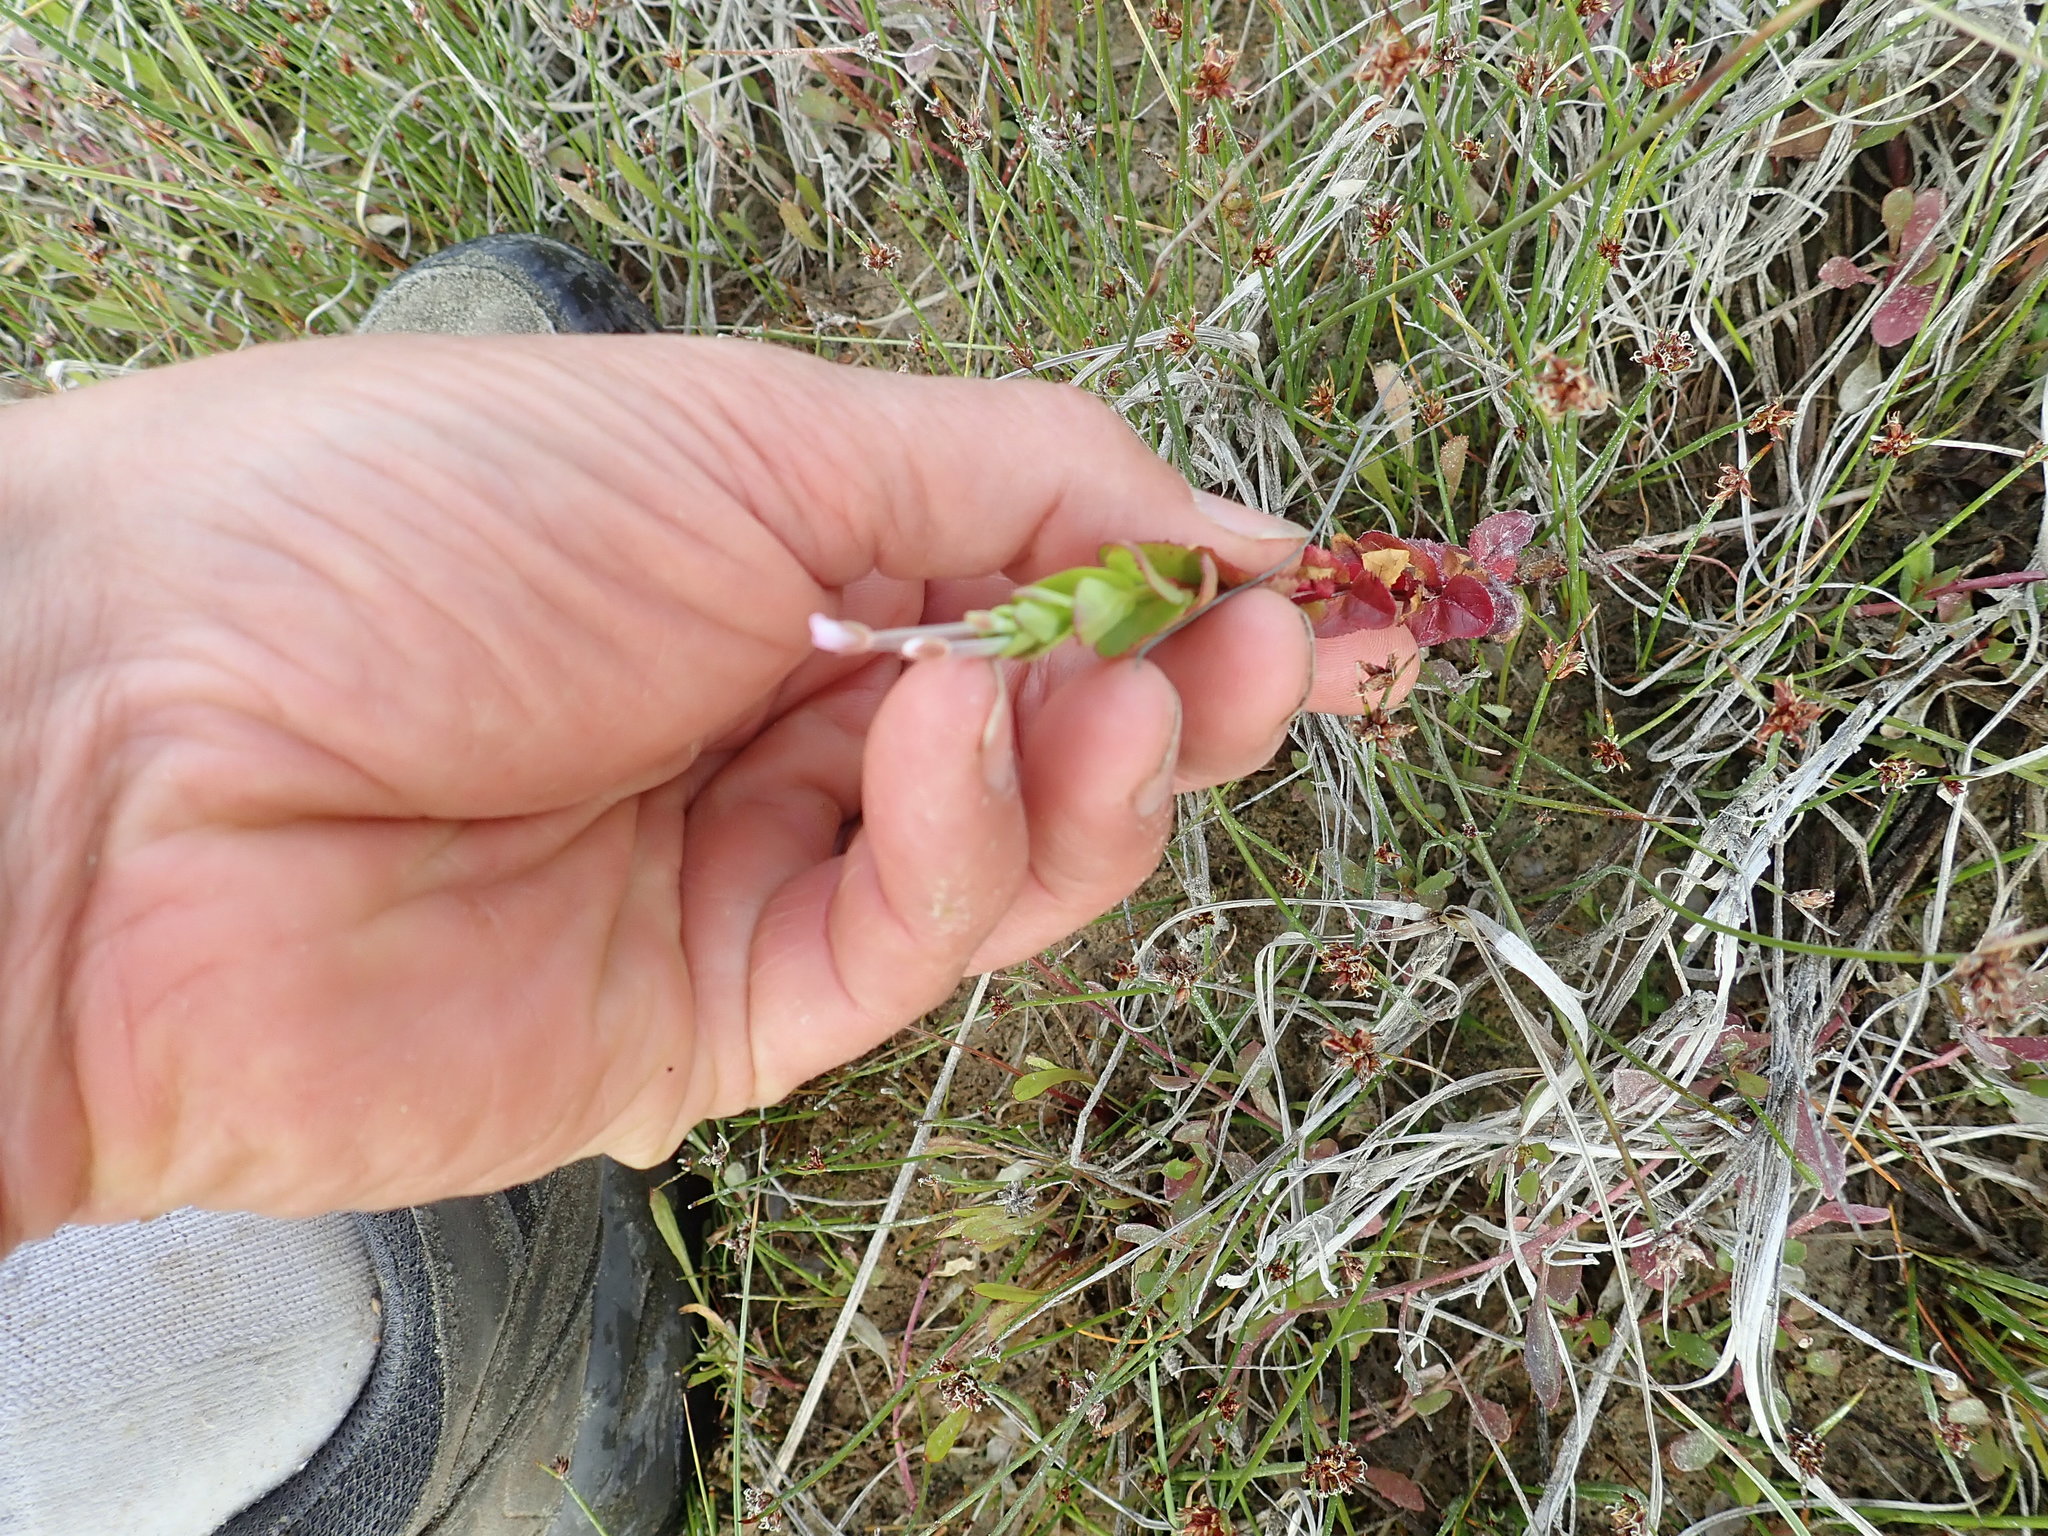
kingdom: Plantae
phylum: Tracheophyta
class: Magnoliopsida
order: Myrtales
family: Onagraceae
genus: Epilobium
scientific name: Epilobium billardiereanum
